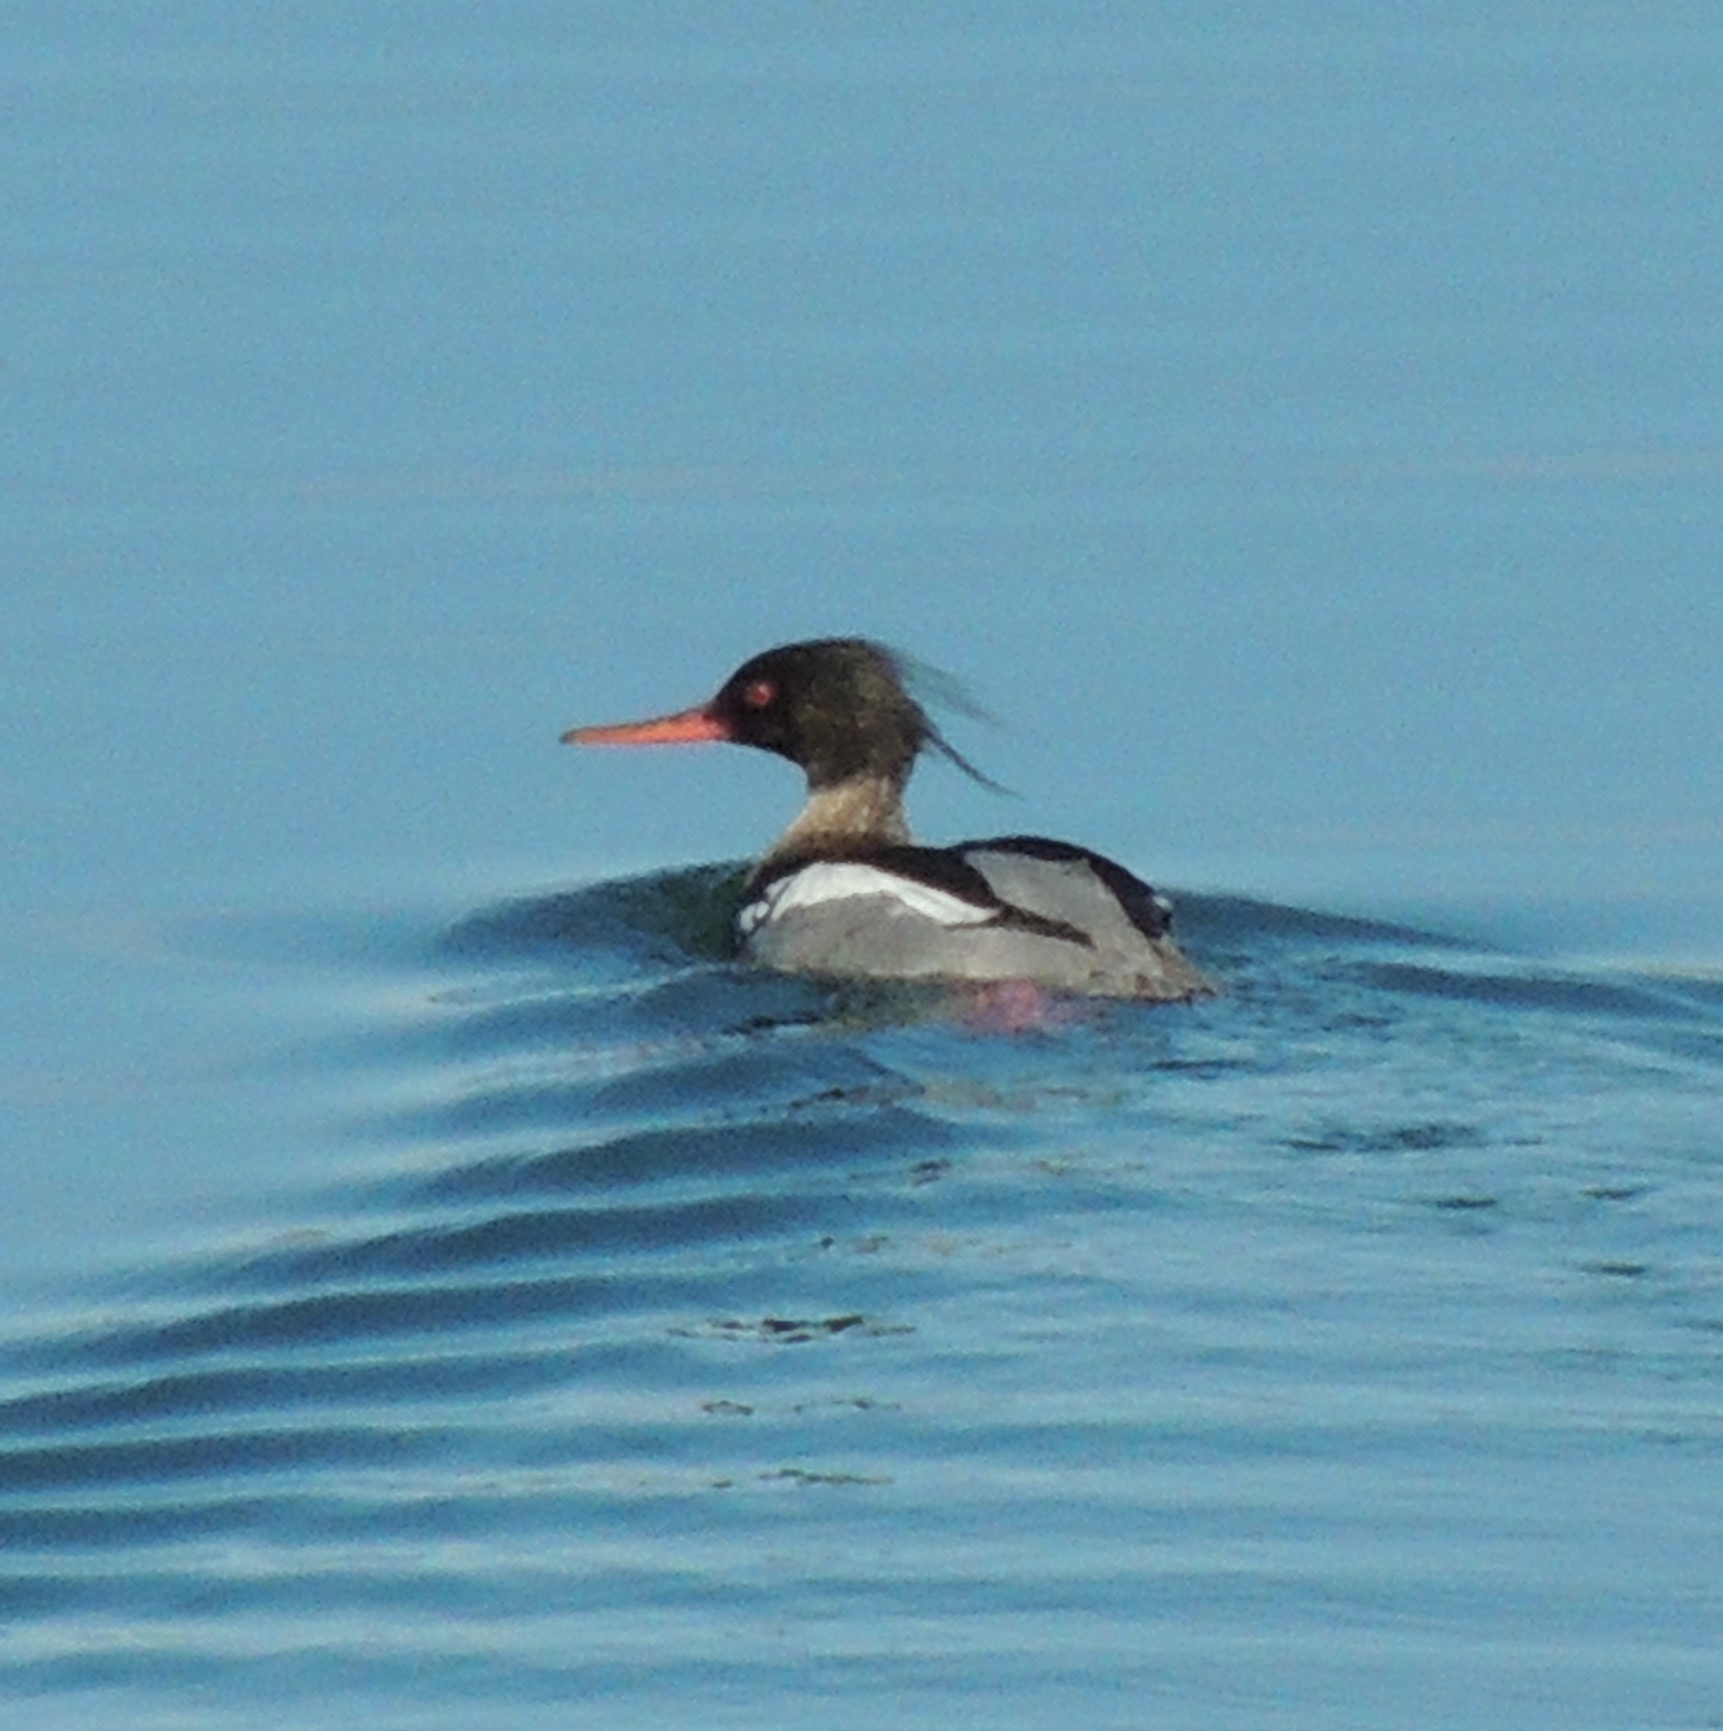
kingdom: Animalia
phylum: Chordata
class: Aves
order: Anseriformes
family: Anatidae
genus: Mergus
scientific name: Mergus serrator
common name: Red-breasted merganser
